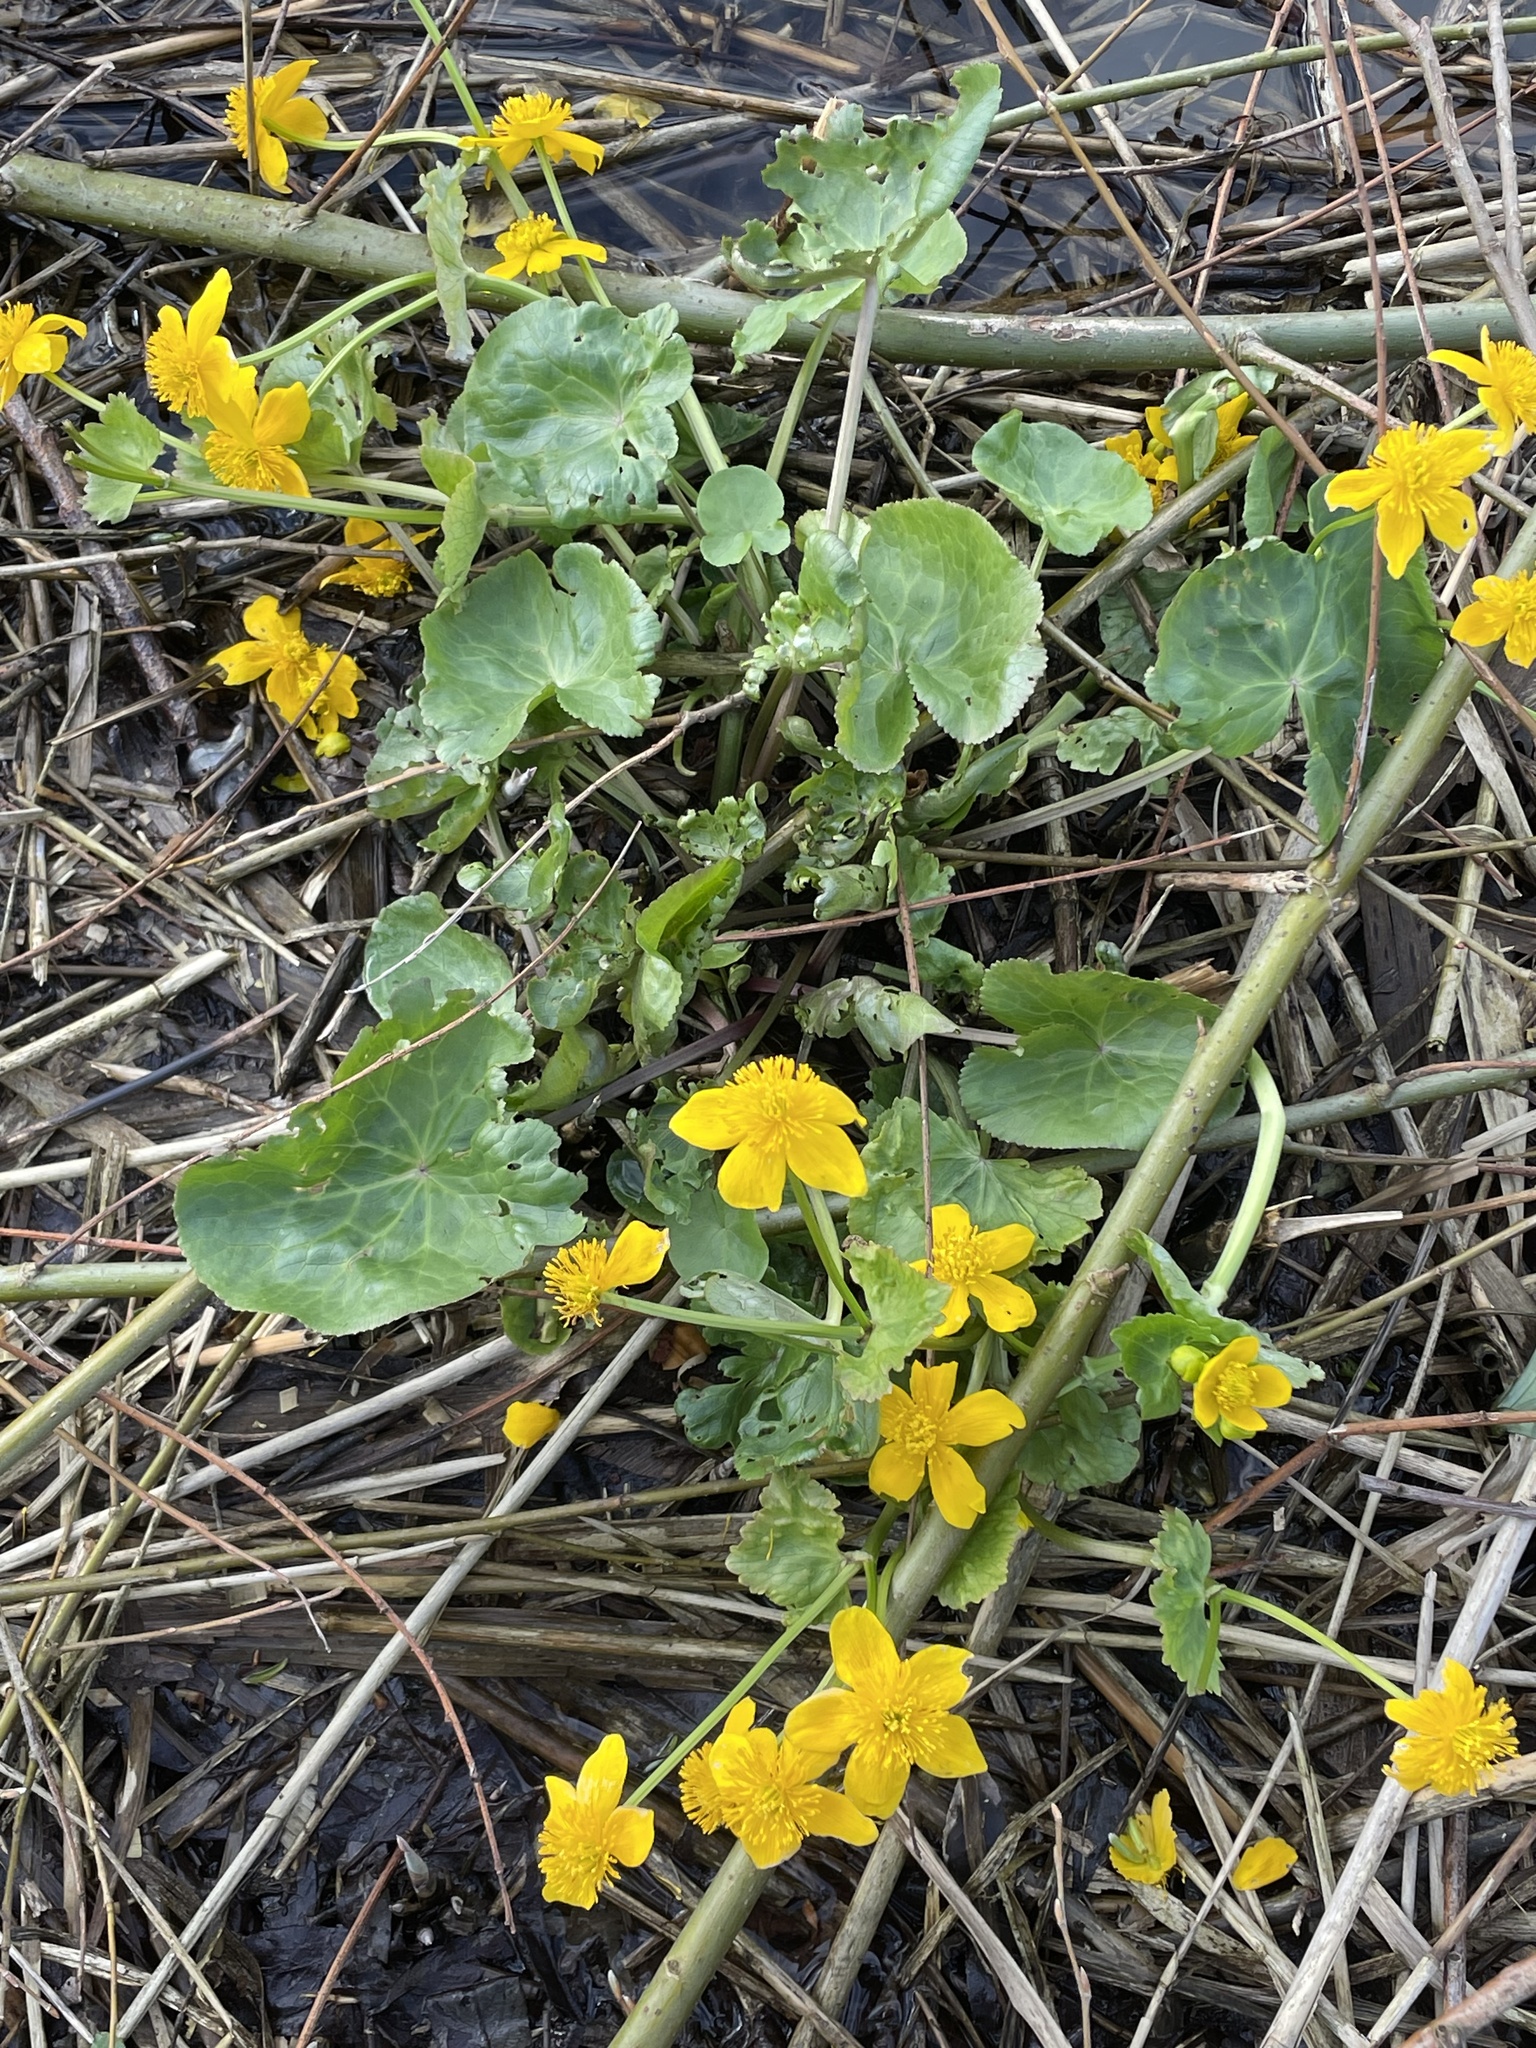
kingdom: Plantae
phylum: Tracheophyta
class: Magnoliopsida
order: Ranunculales
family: Ranunculaceae
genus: Caltha
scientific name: Caltha palustris
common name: Marsh marigold
